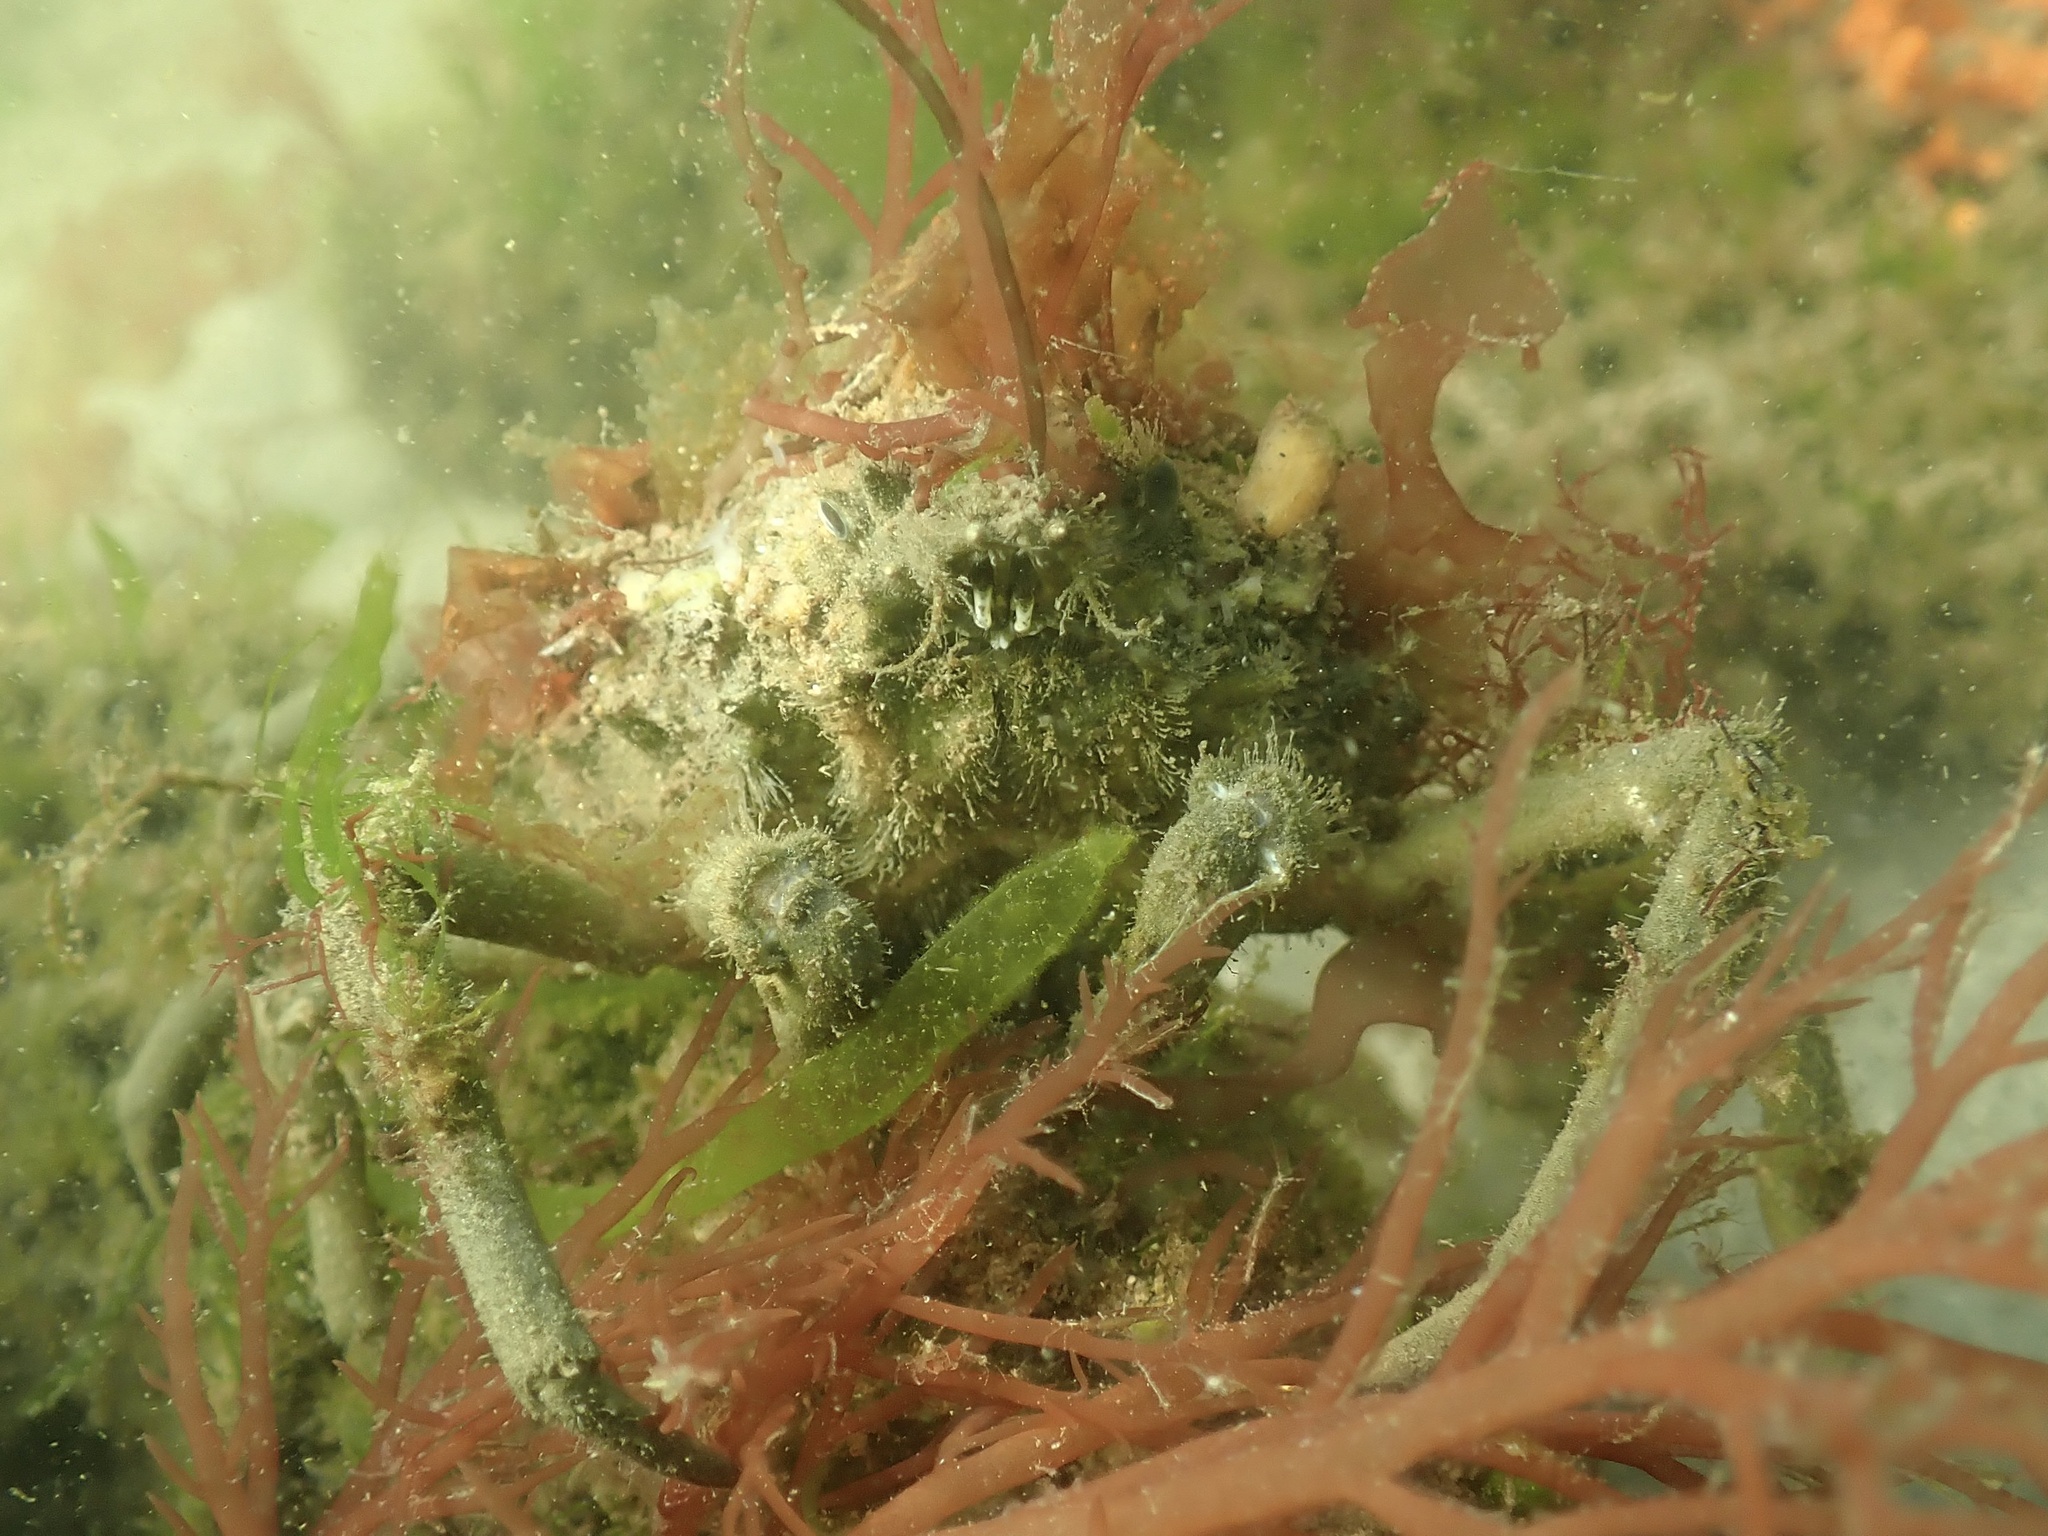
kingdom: Animalia
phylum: Arthropoda
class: Malacostraca
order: Decapoda
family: Epialtidae
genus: Libinia
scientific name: Libinia emarginata
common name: Common spider crab
